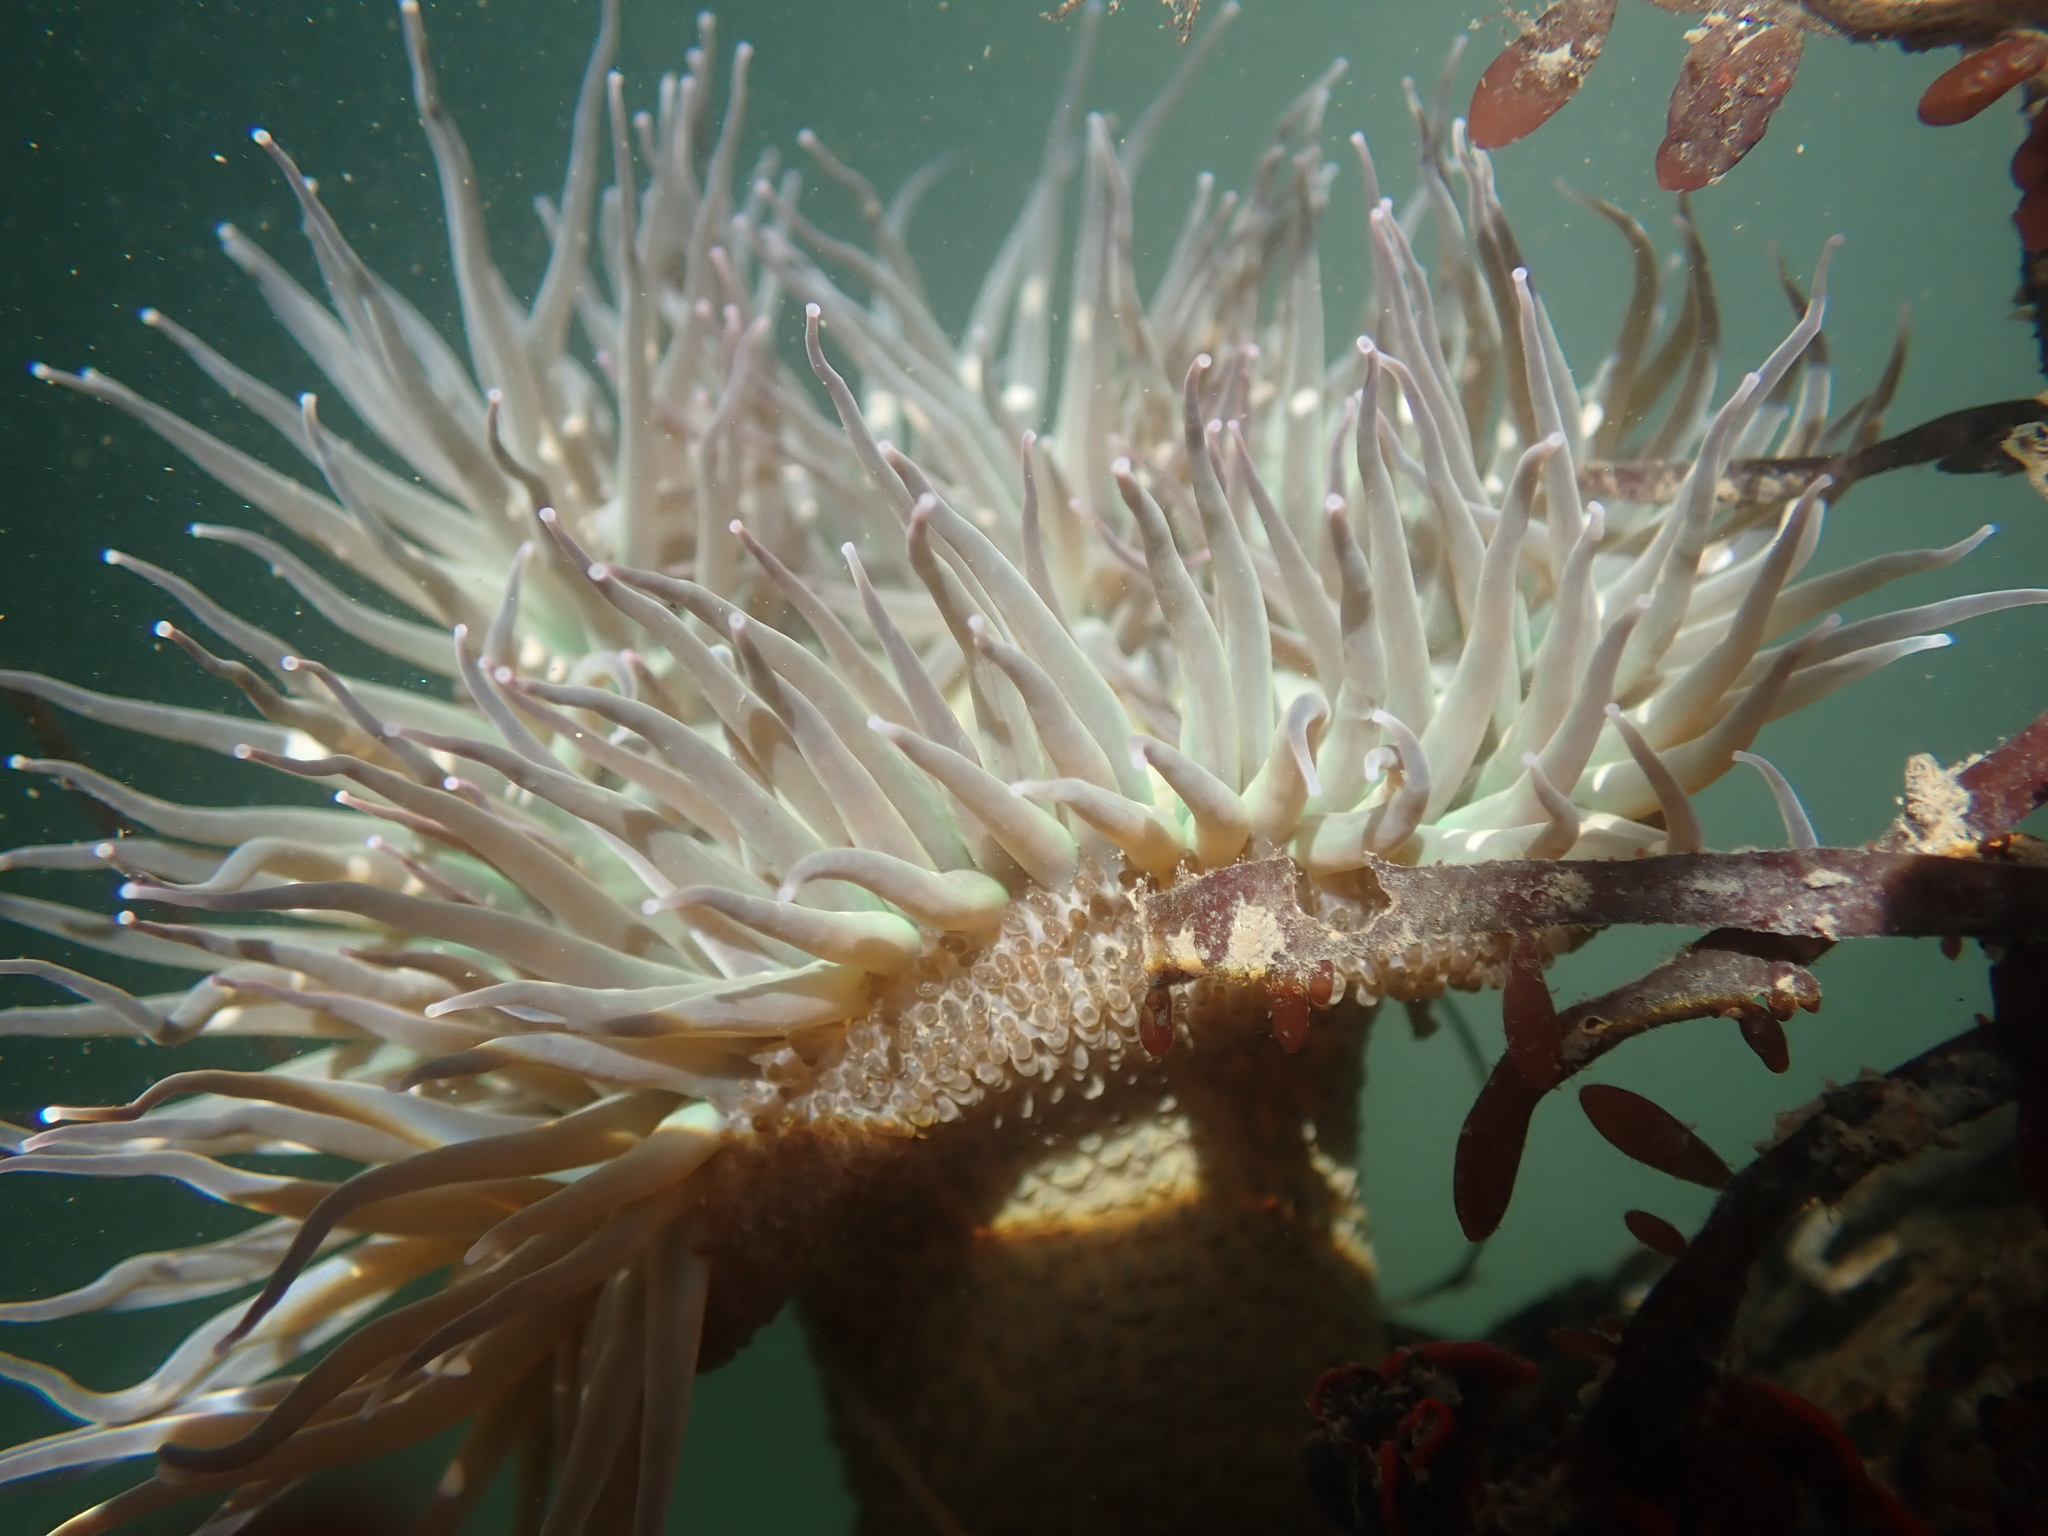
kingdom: Animalia
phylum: Cnidaria
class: Anthozoa
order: Actiniaria
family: Actiniidae
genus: Anthopleura
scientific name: Anthopleura sola
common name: Sun anemone
